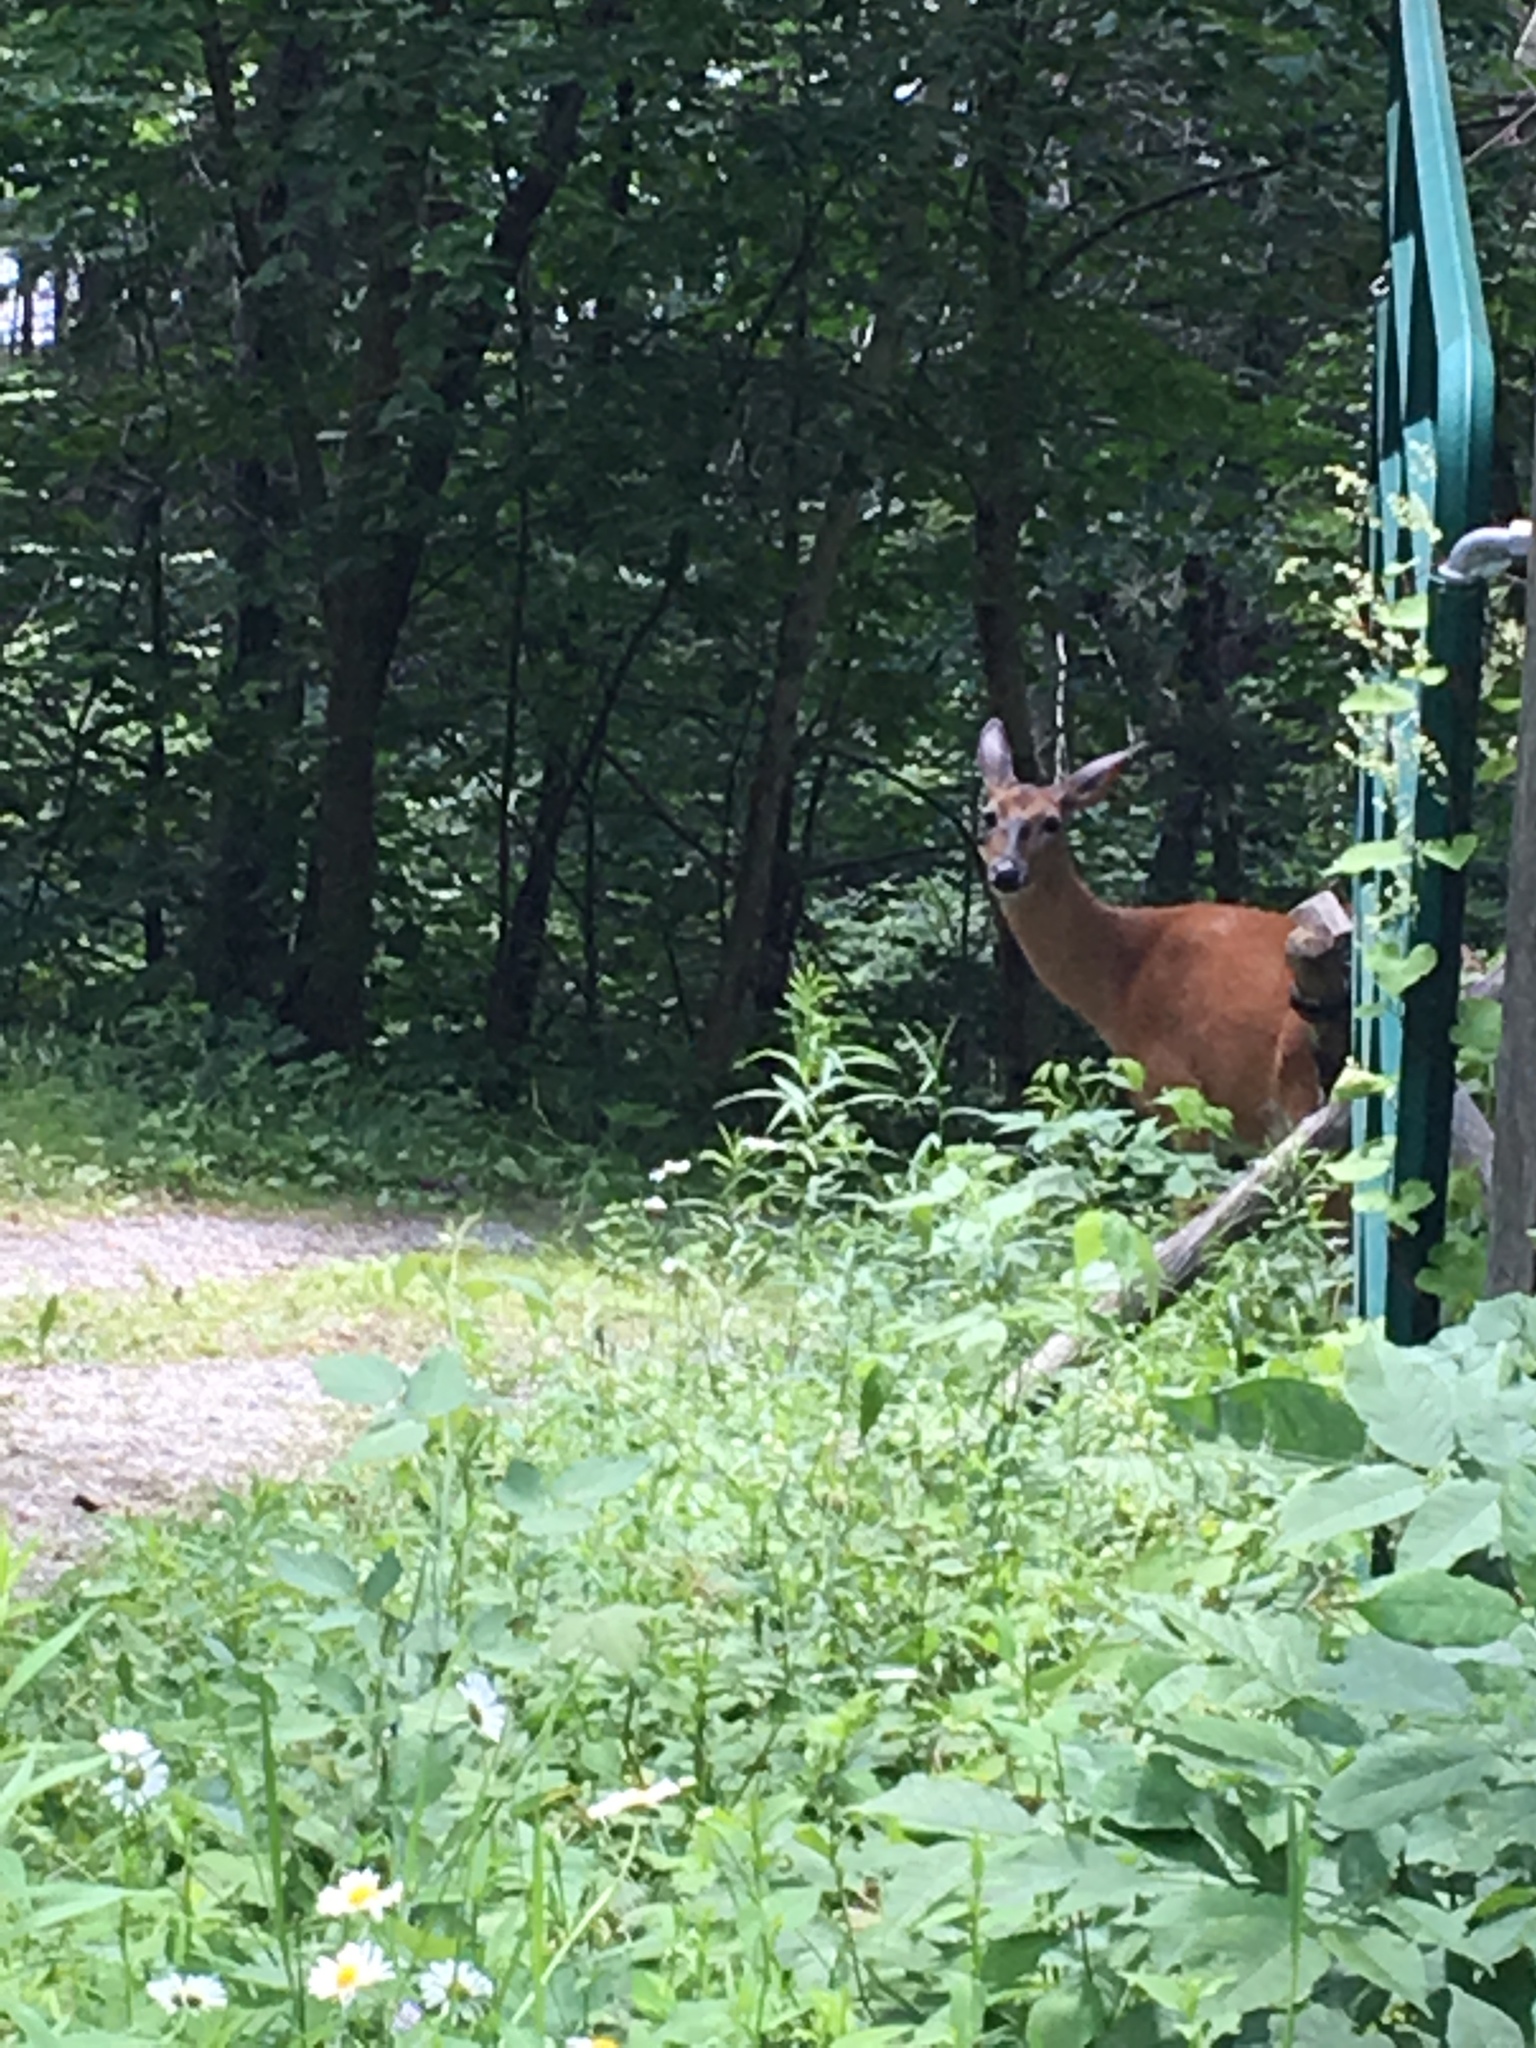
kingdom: Animalia
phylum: Chordata
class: Mammalia
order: Artiodactyla
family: Cervidae
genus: Odocoileus
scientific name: Odocoileus virginianus
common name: White-tailed deer
